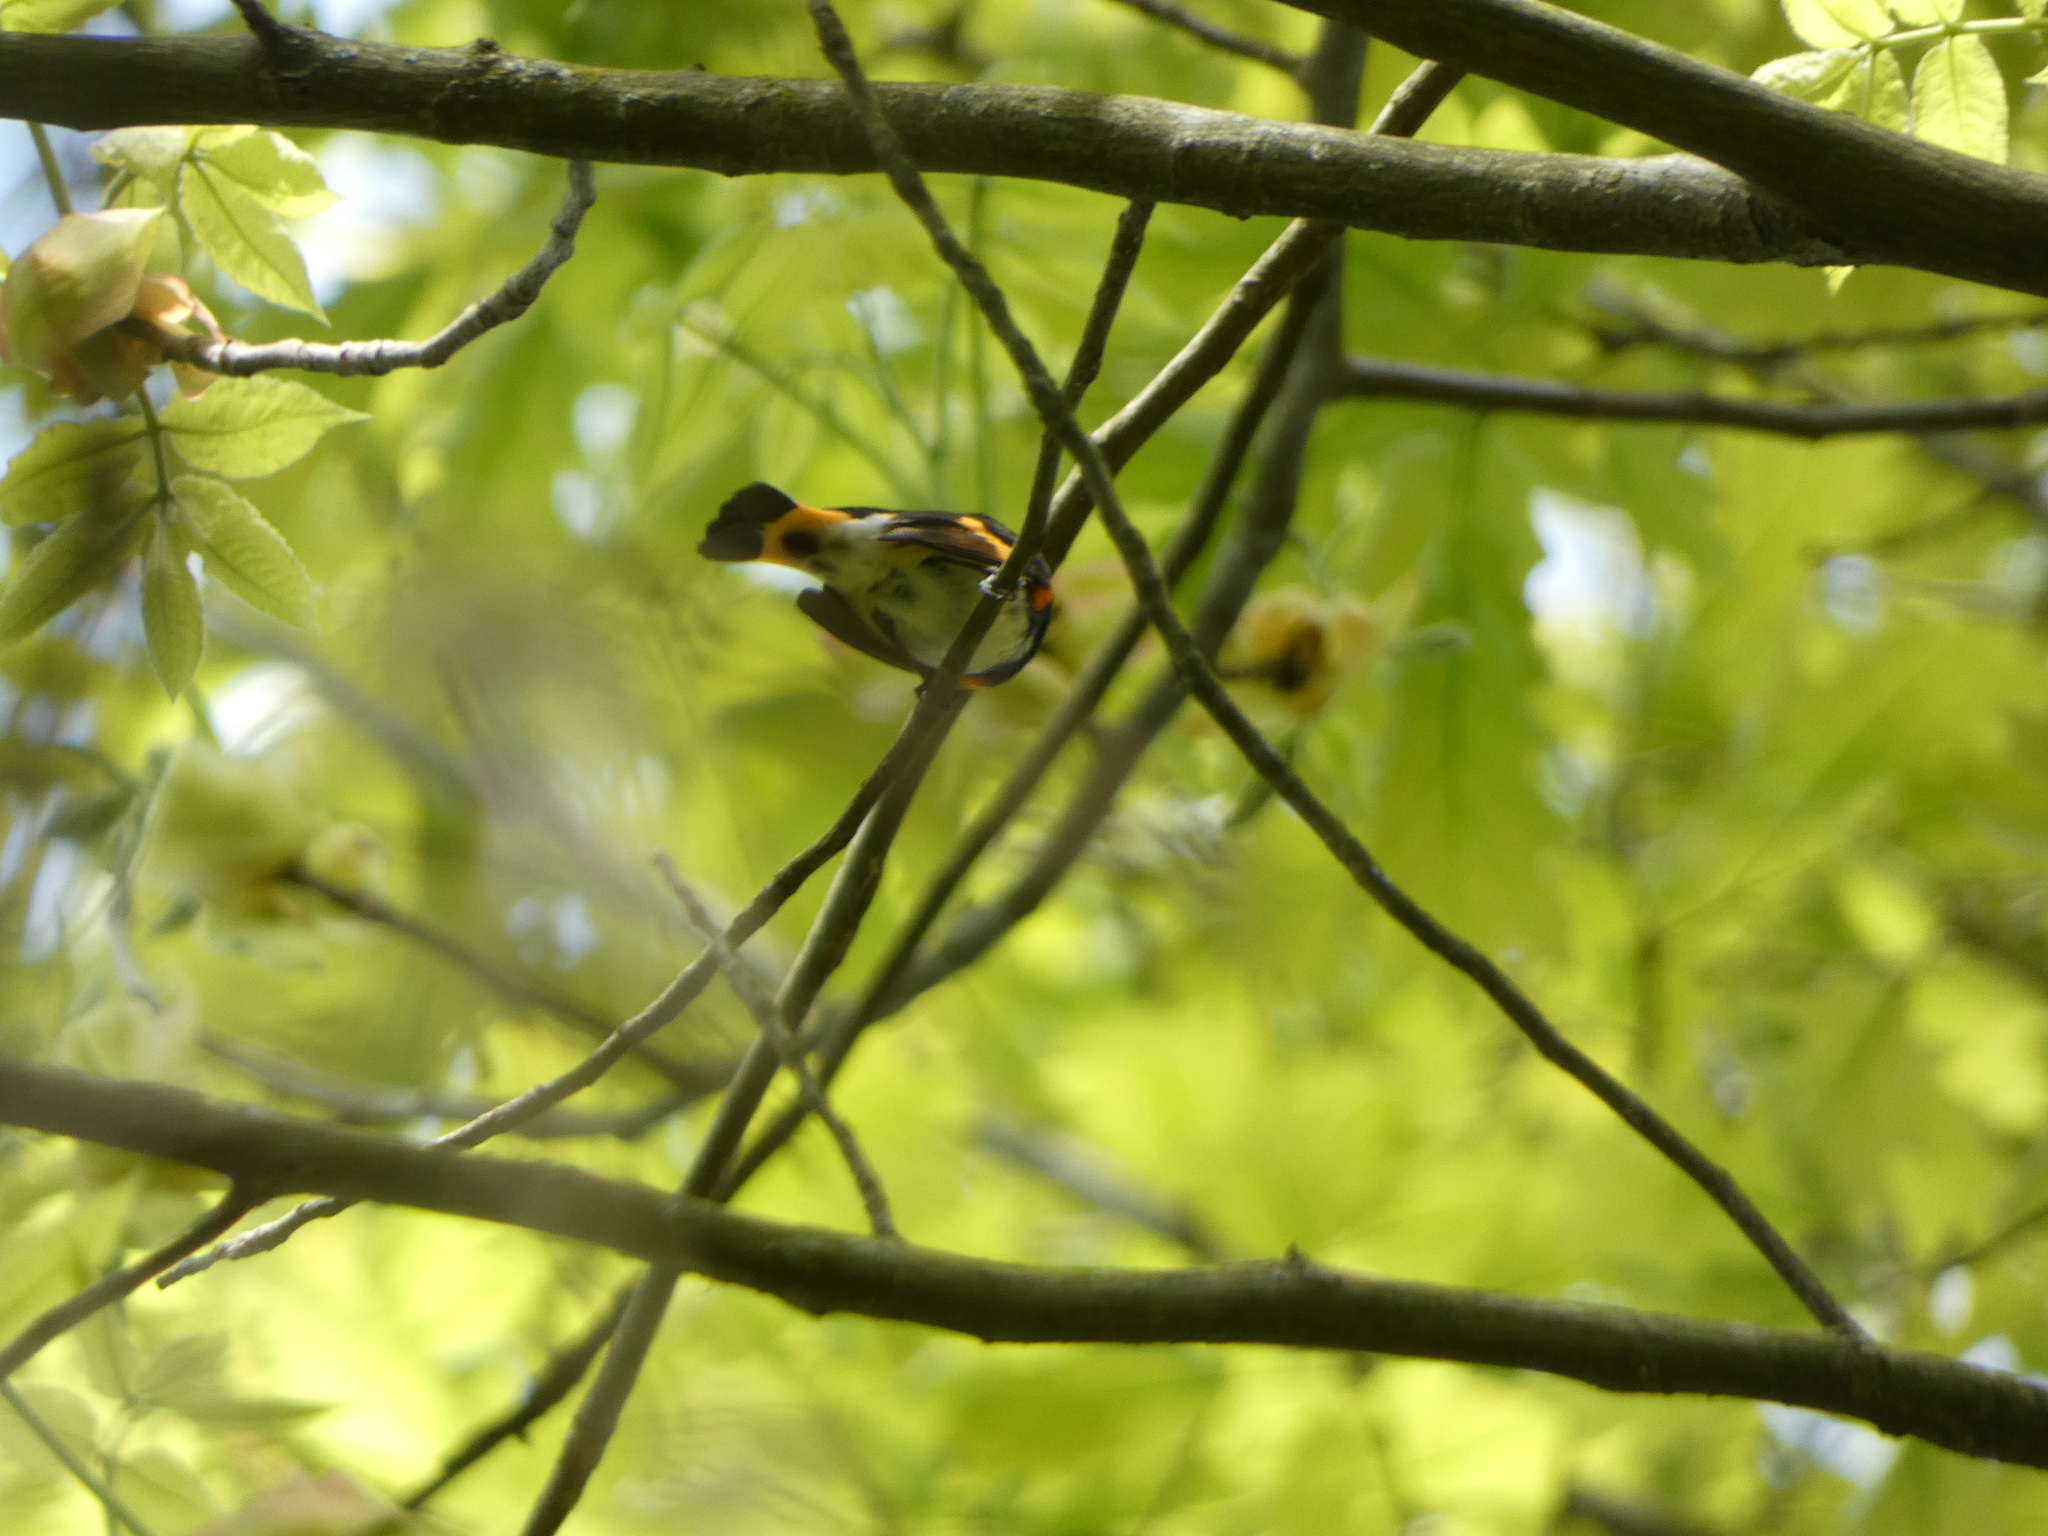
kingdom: Animalia
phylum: Chordata
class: Aves
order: Passeriformes
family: Parulidae
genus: Setophaga
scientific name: Setophaga ruticilla
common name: American redstart
